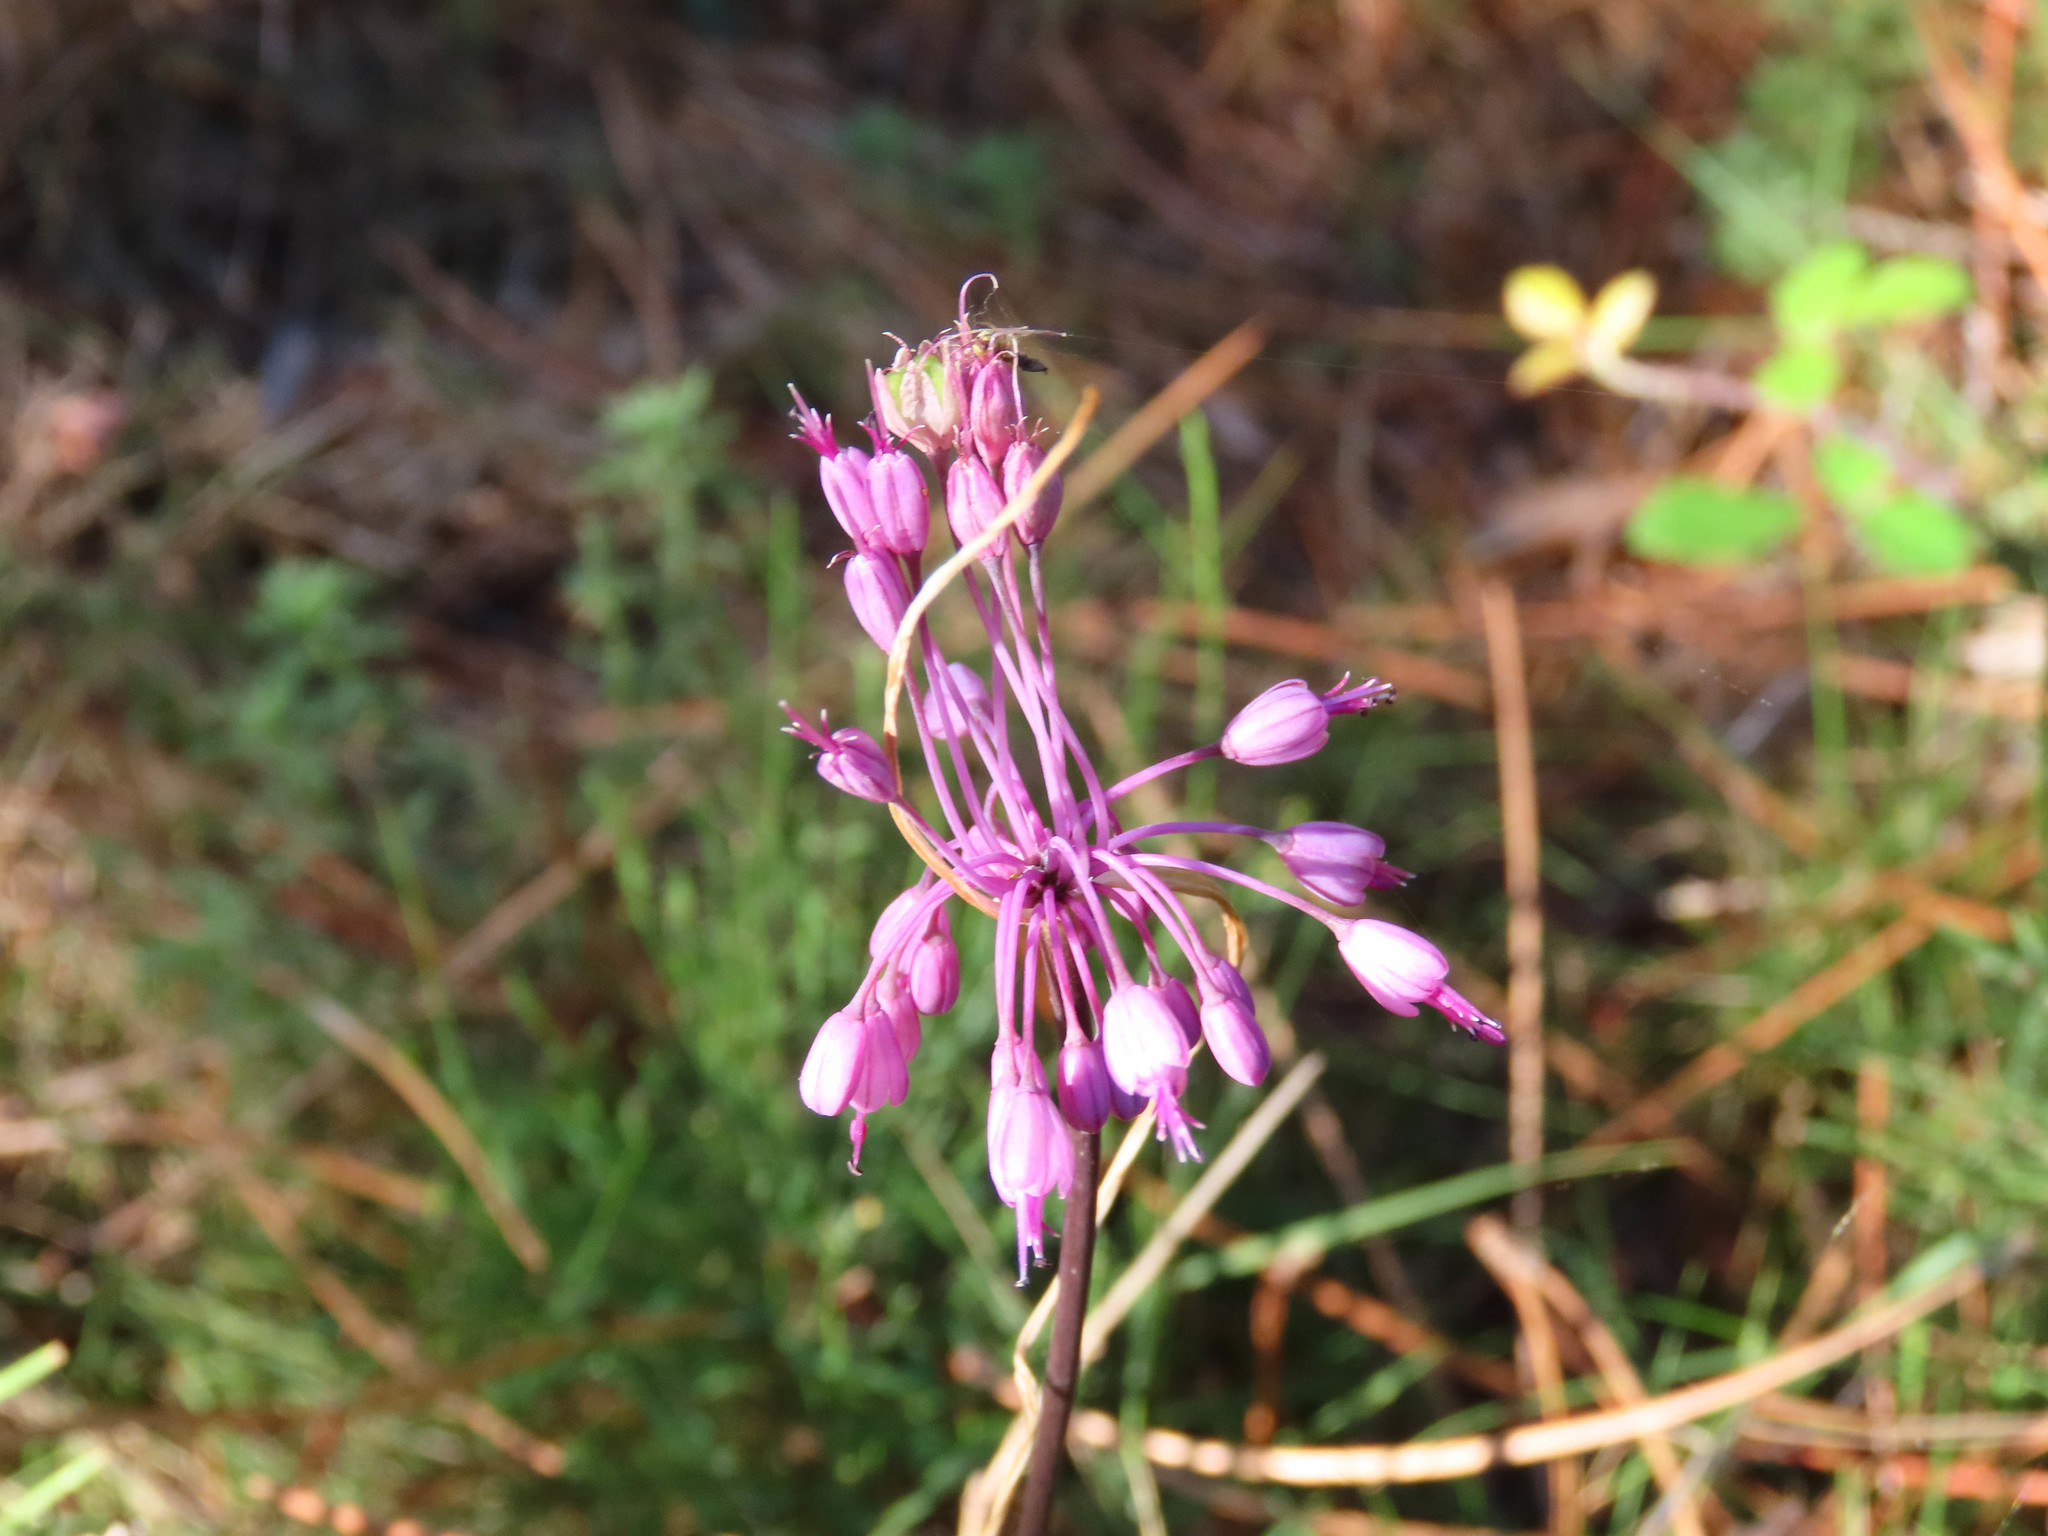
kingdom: Plantae
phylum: Tracheophyta
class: Liliopsida
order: Asparagales
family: Amaryllidaceae
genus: Allium
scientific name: Allium coloratum
